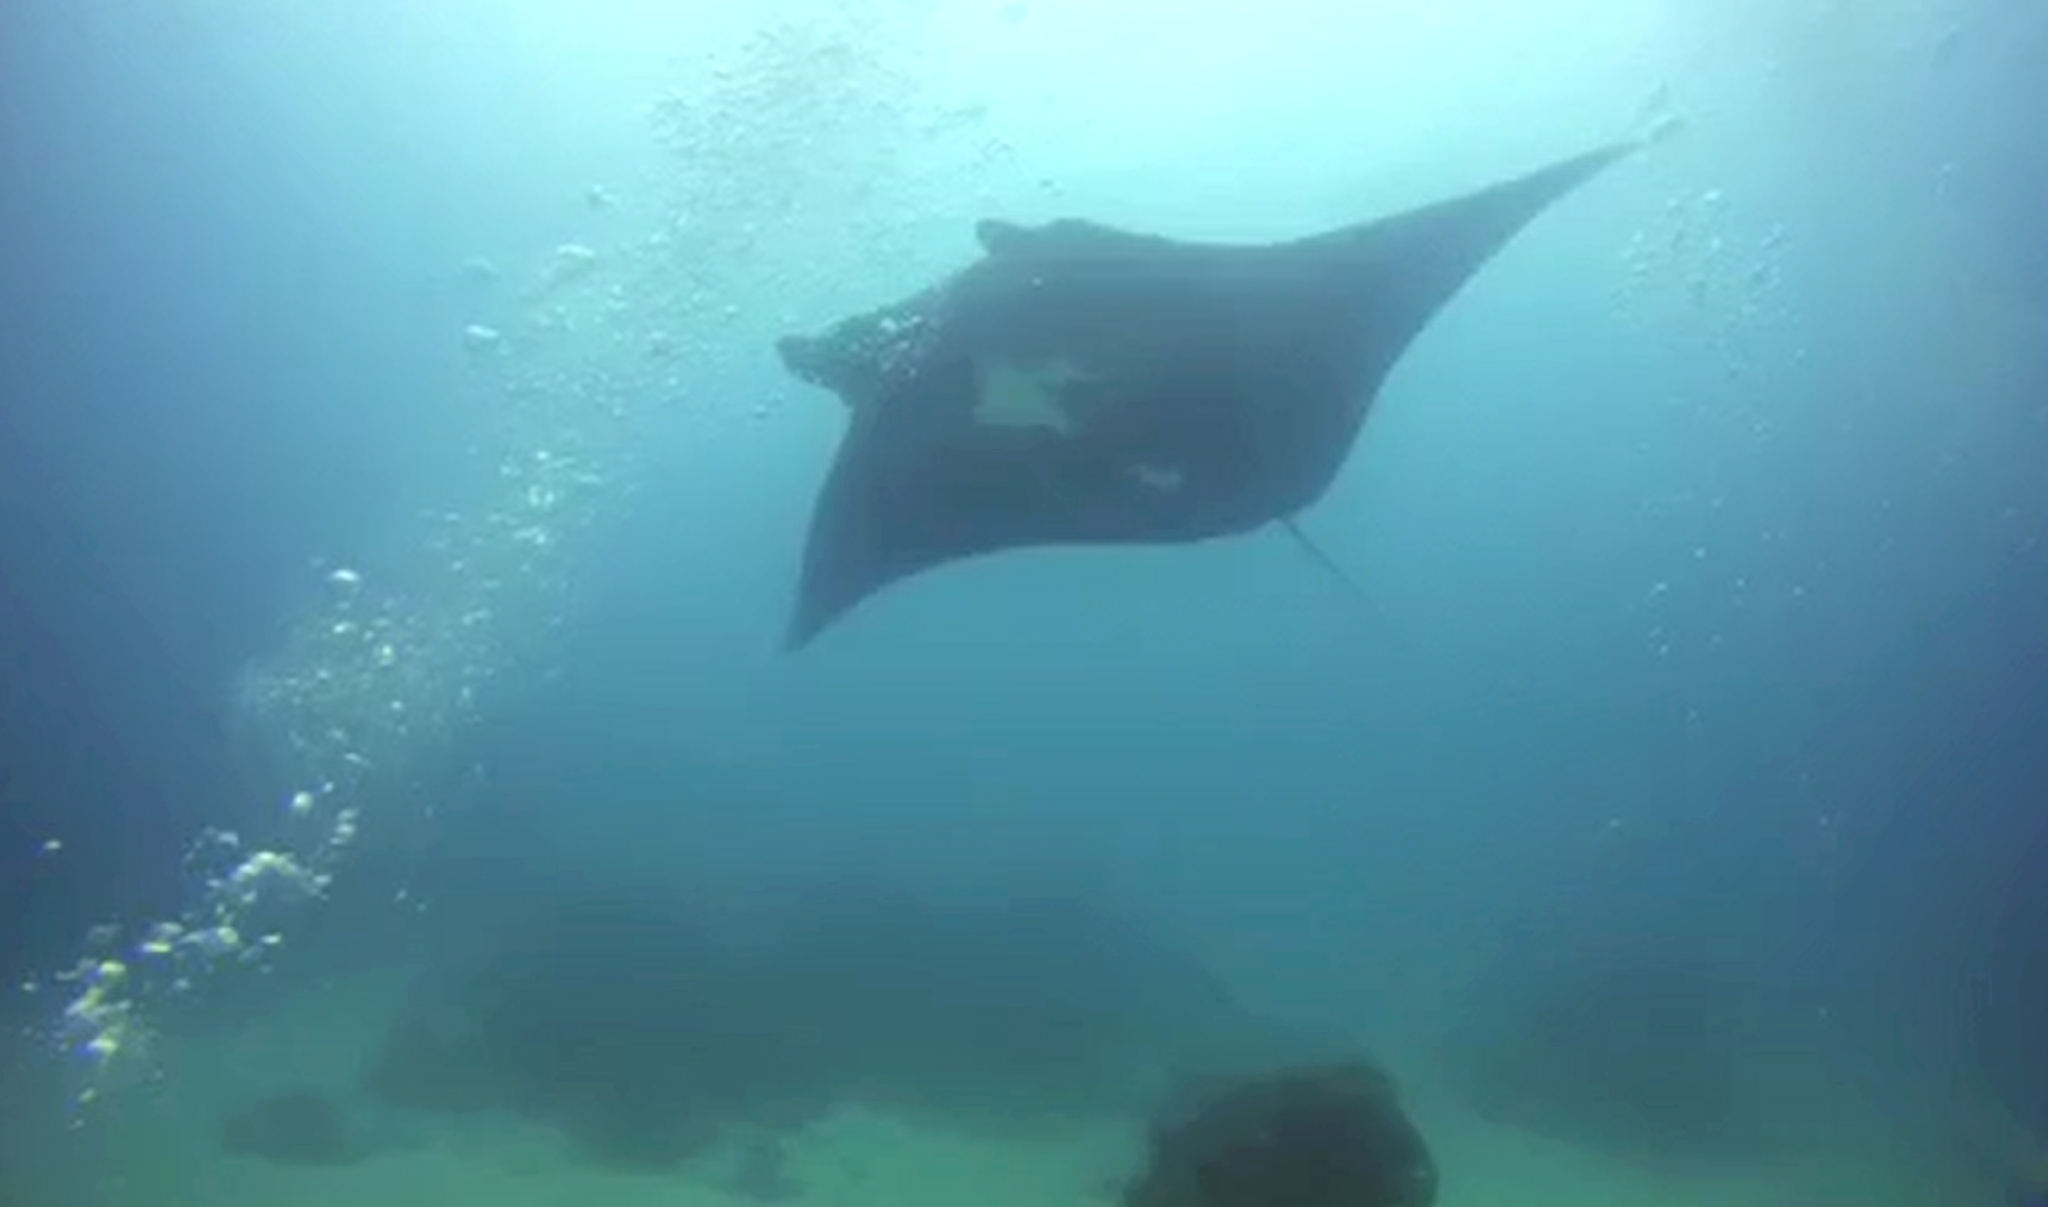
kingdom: Animalia
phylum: Chordata
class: Elasmobranchii
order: Myliobatiformes
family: Myliobatidae
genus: Mobula
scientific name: Mobula alfredi
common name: Reef manta ray
